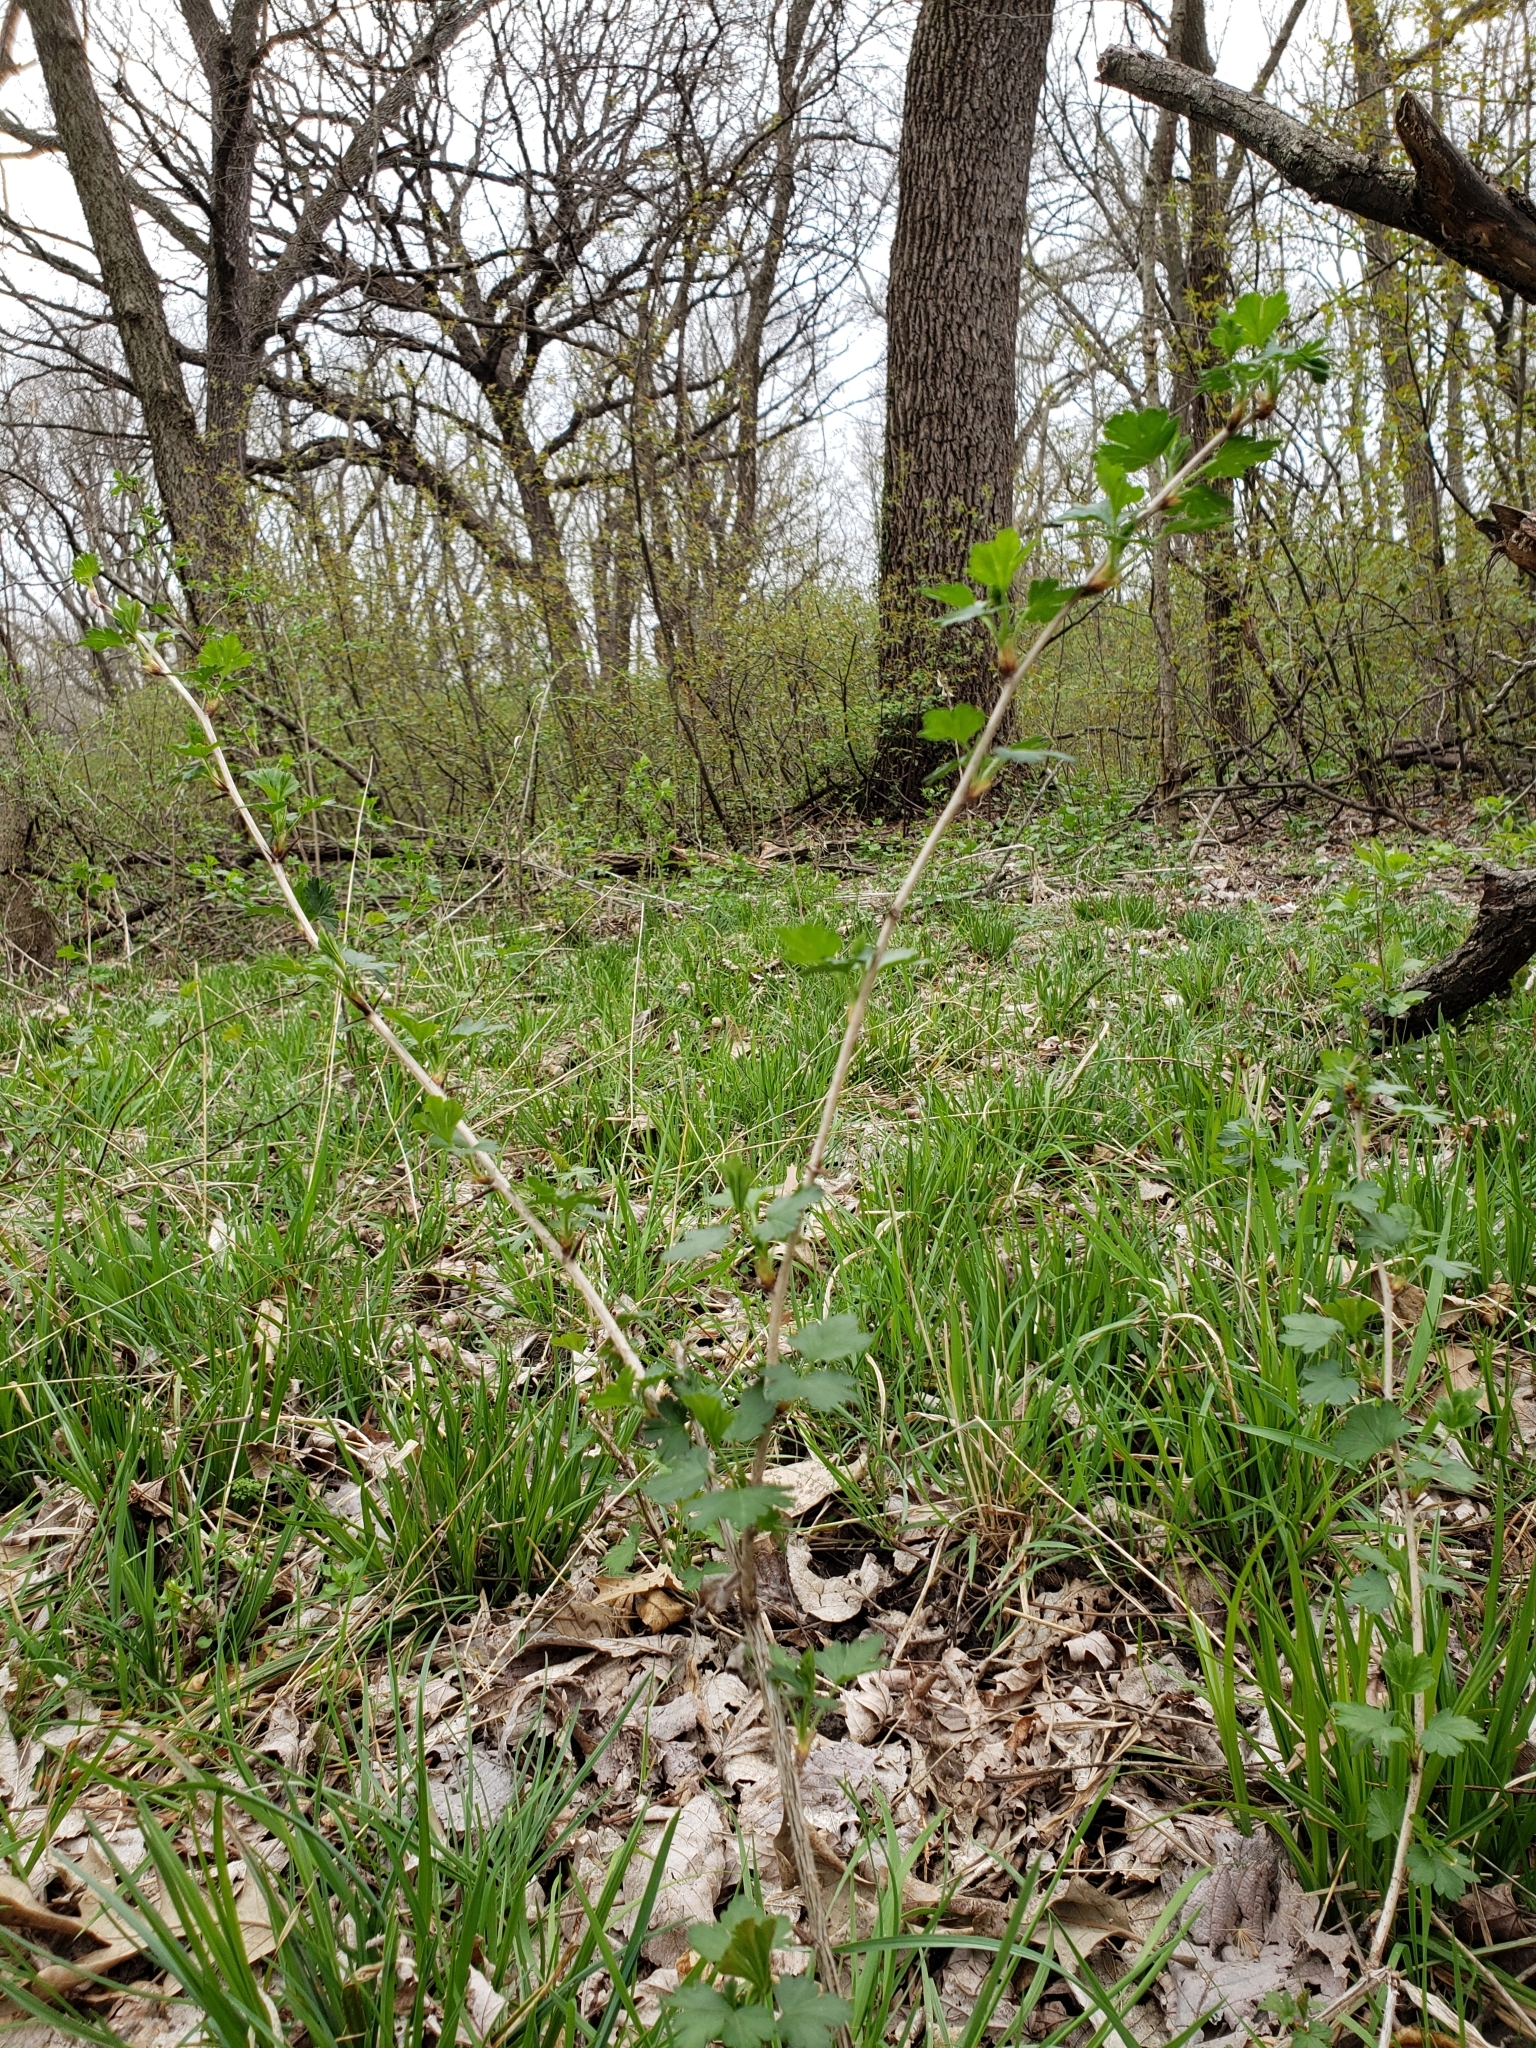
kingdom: Plantae
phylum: Tracheophyta
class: Magnoliopsida
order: Saxifragales
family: Grossulariaceae
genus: Ribes
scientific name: Ribes missouriense
